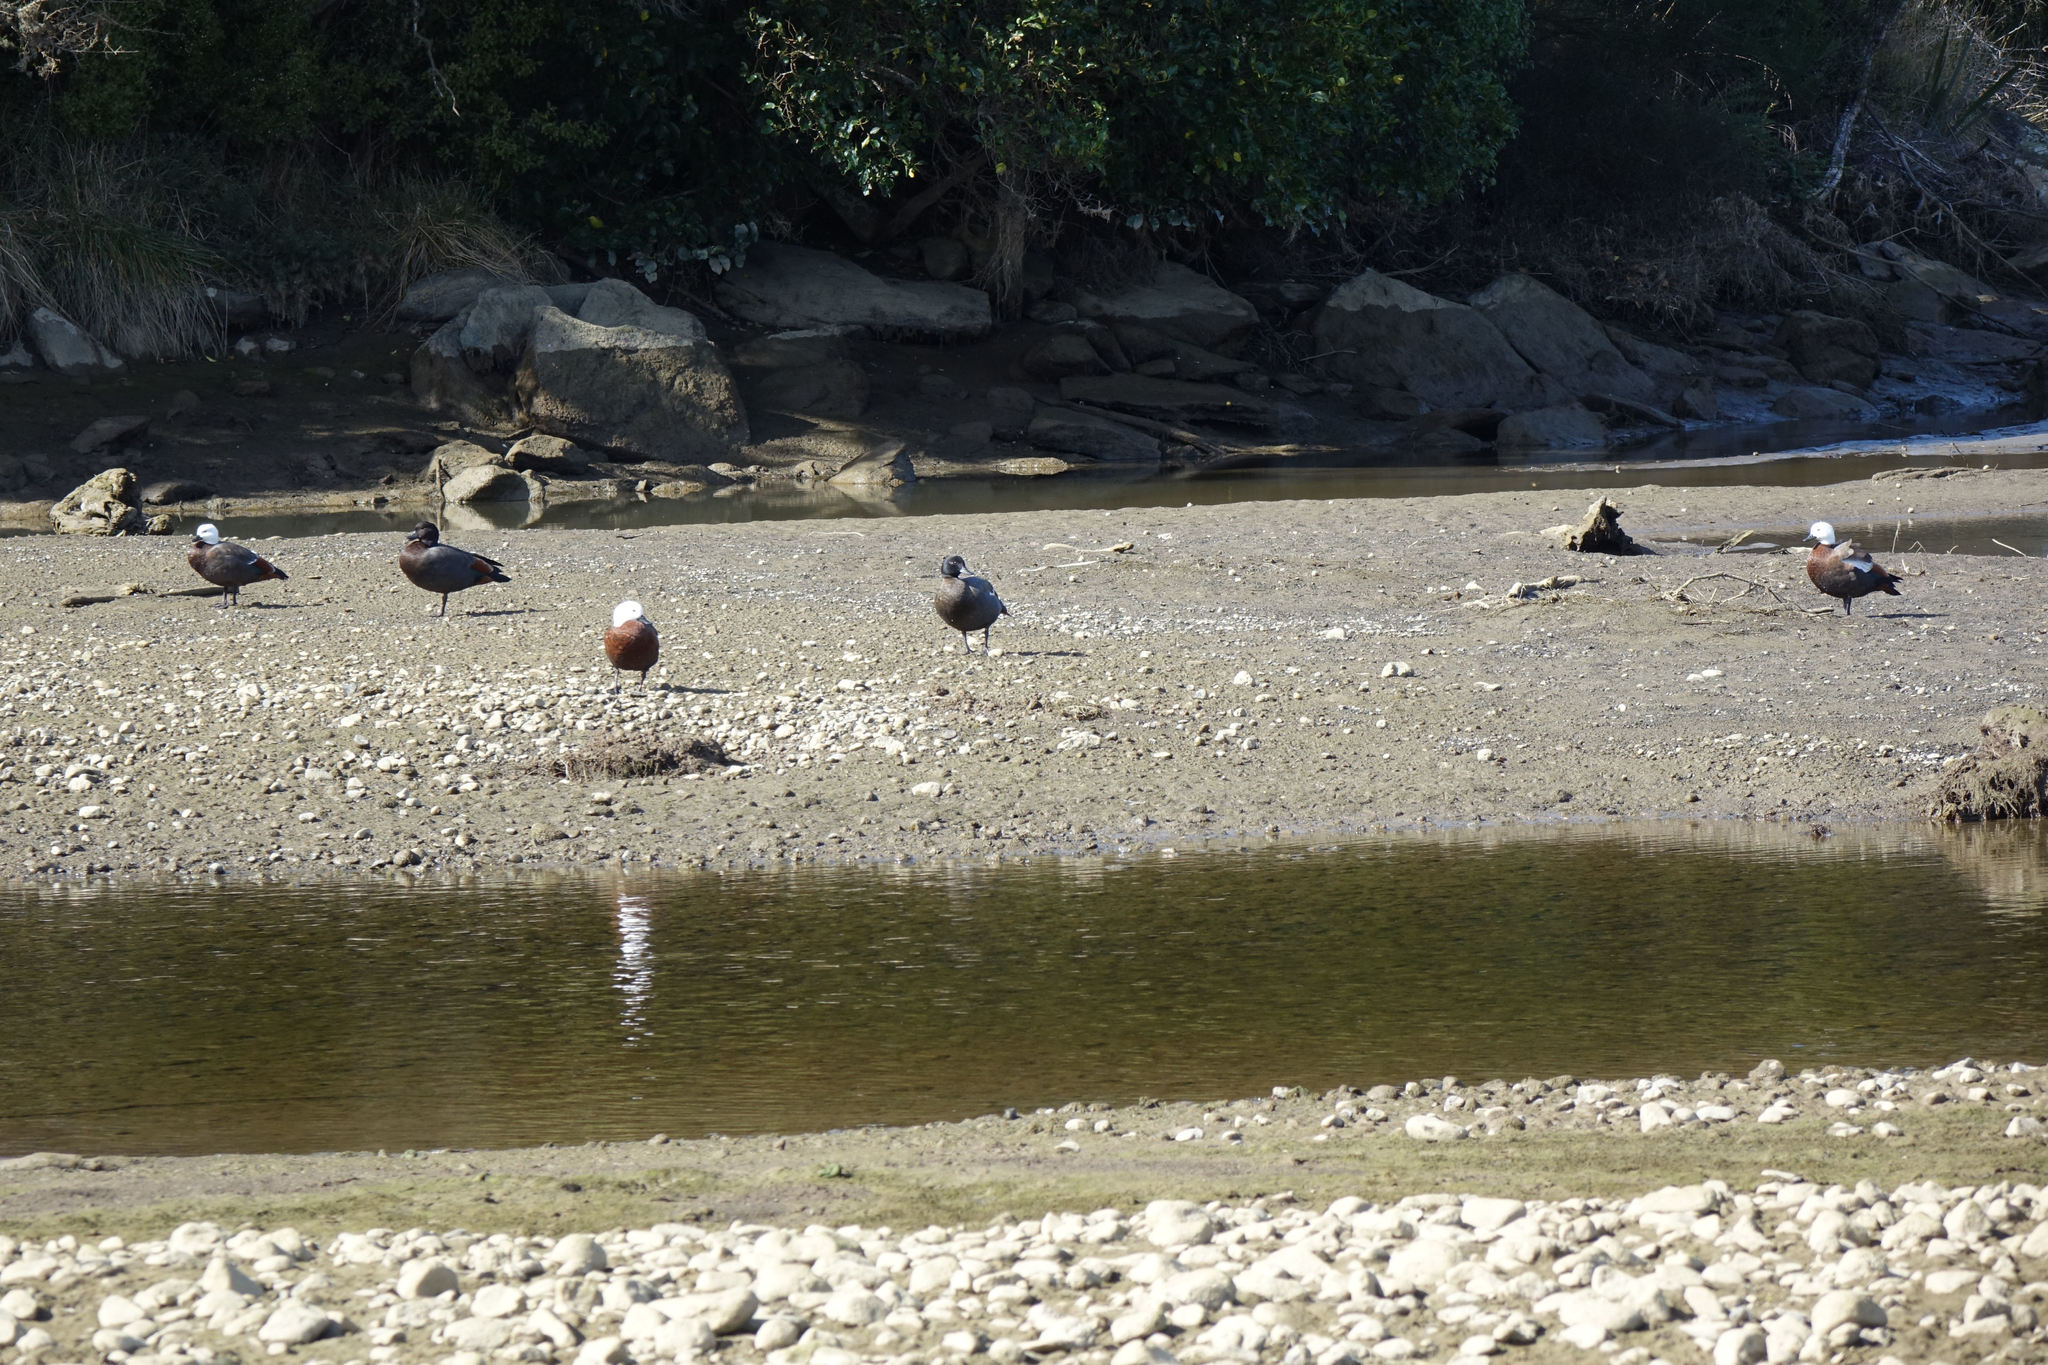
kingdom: Animalia
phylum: Chordata
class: Aves
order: Anseriformes
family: Anatidae
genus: Tadorna
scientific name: Tadorna variegata
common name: Paradise shelduck
